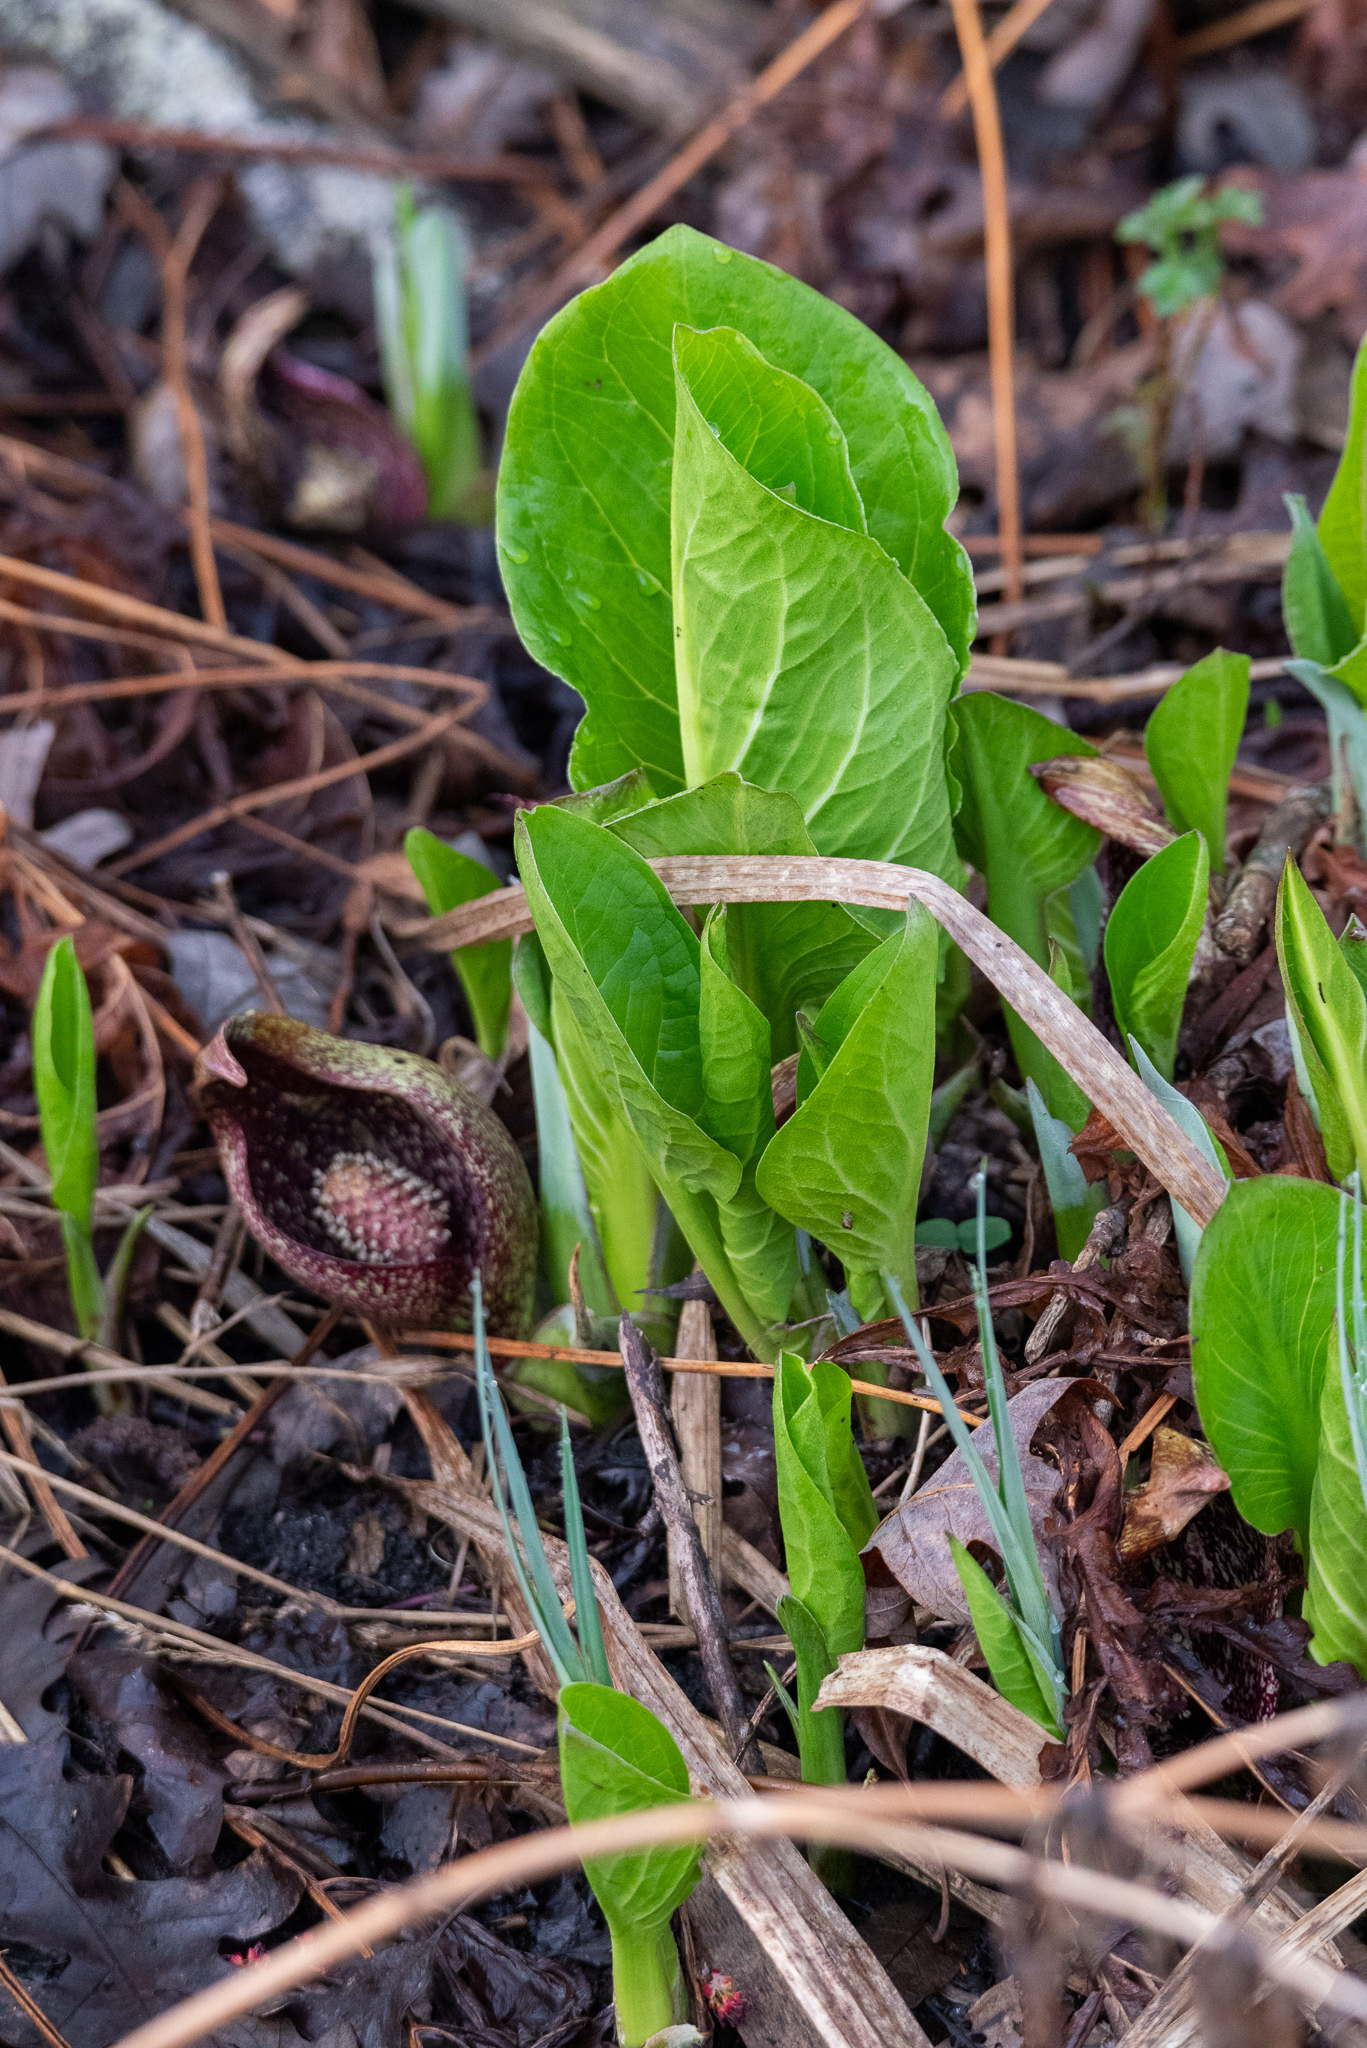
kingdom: Plantae
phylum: Tracheophyta
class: Liliopsida
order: Alismatales
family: Araceae
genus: Symplocarpus
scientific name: Symplocarpus foetidus
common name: Eastern skunk cabbage
